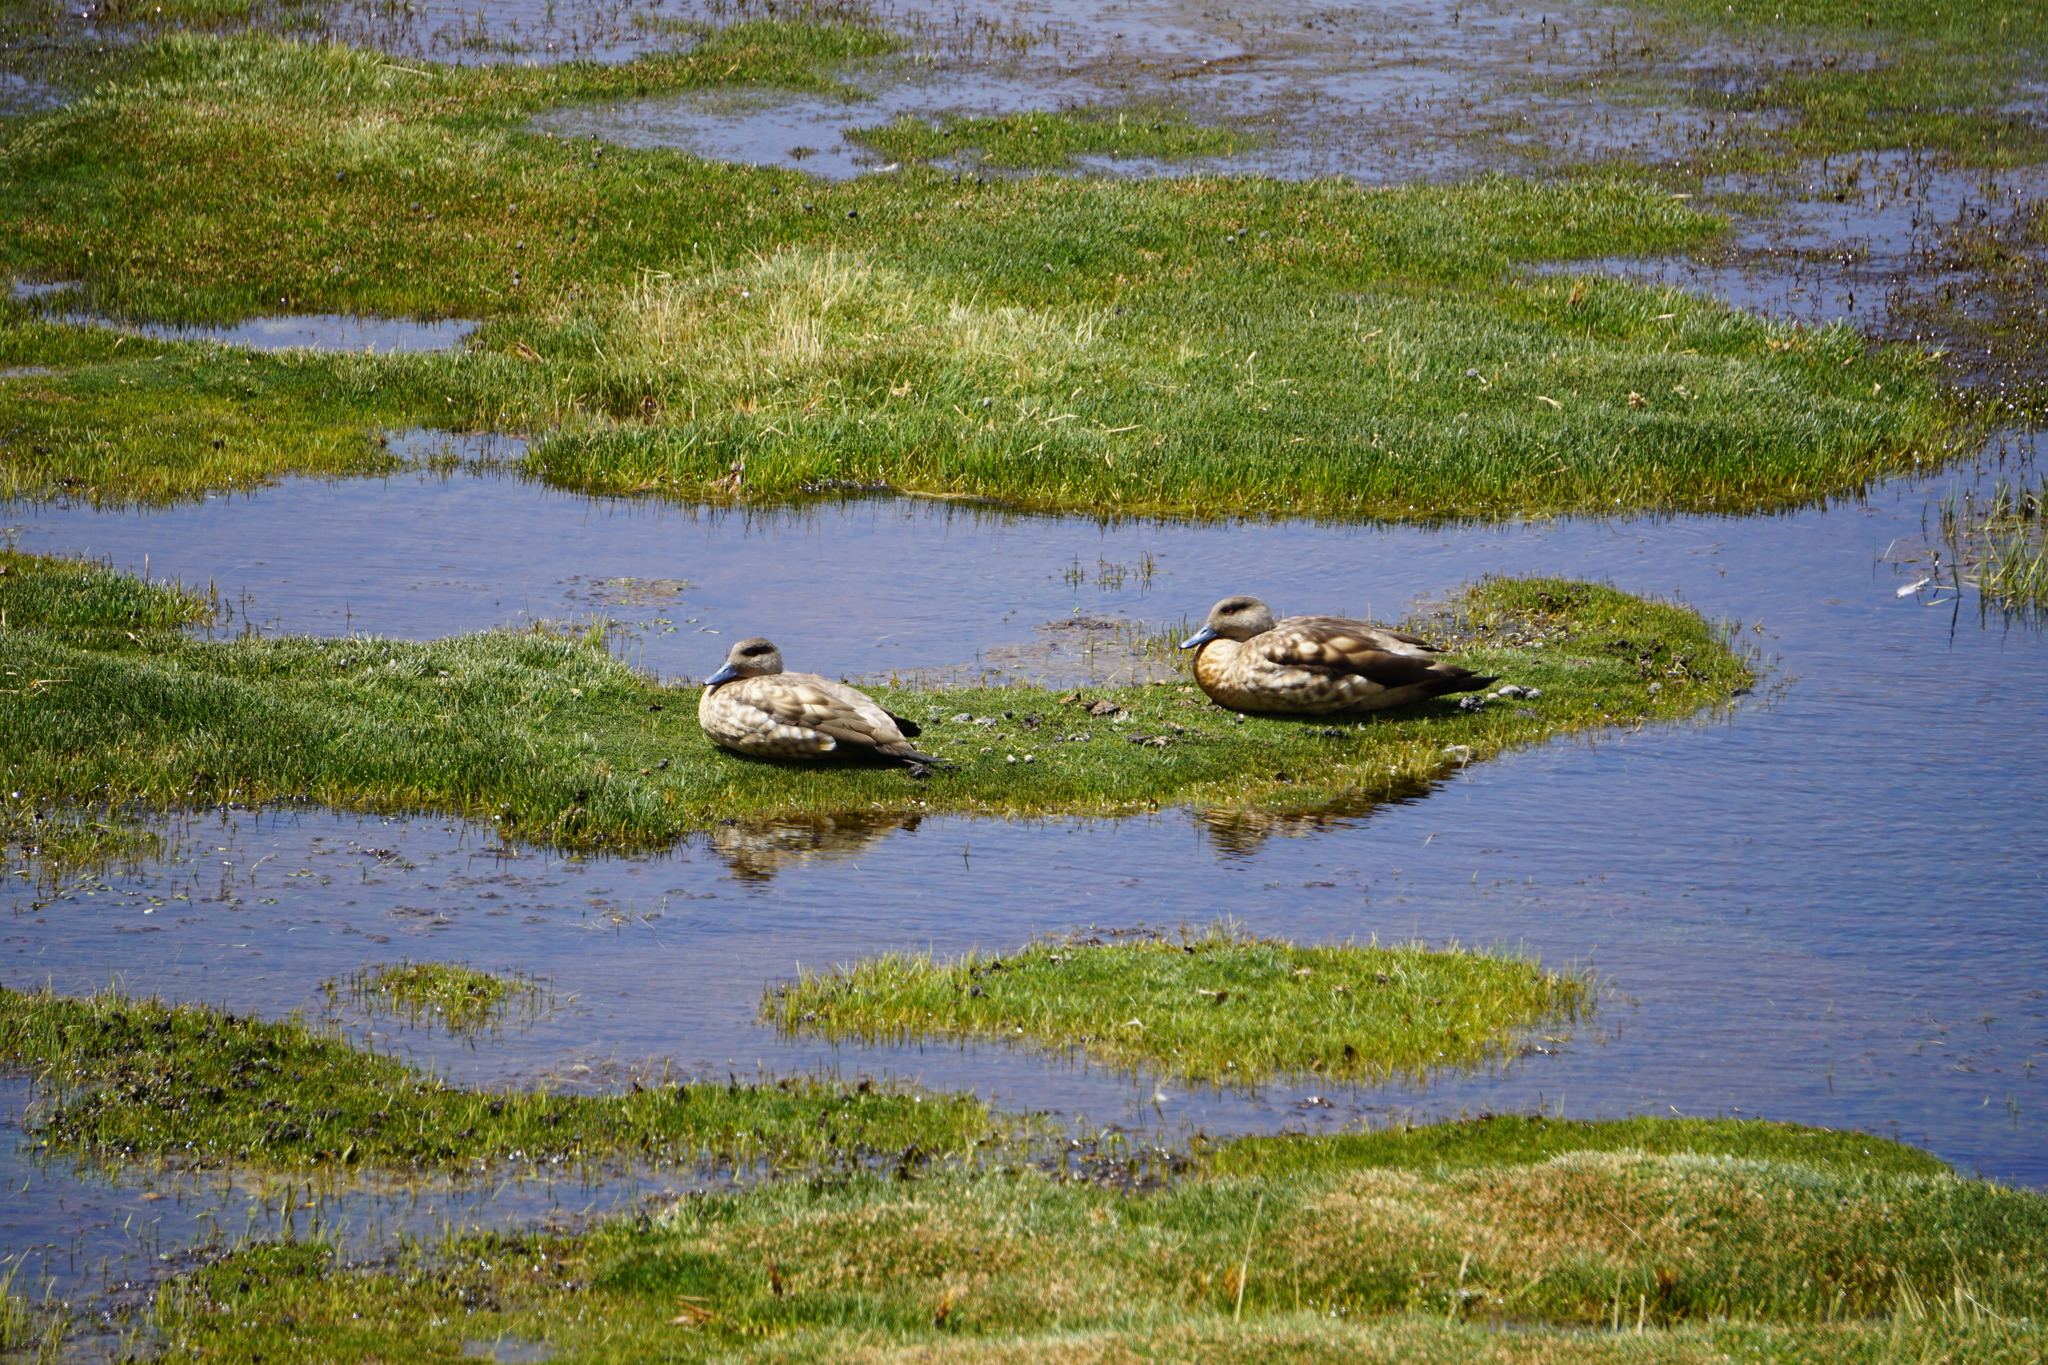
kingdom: Animalia
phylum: Chordata
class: Aves
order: Anseriformes
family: Anatidae
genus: Lophonetta
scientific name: Lophonetta specularioides
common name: Crested duck
